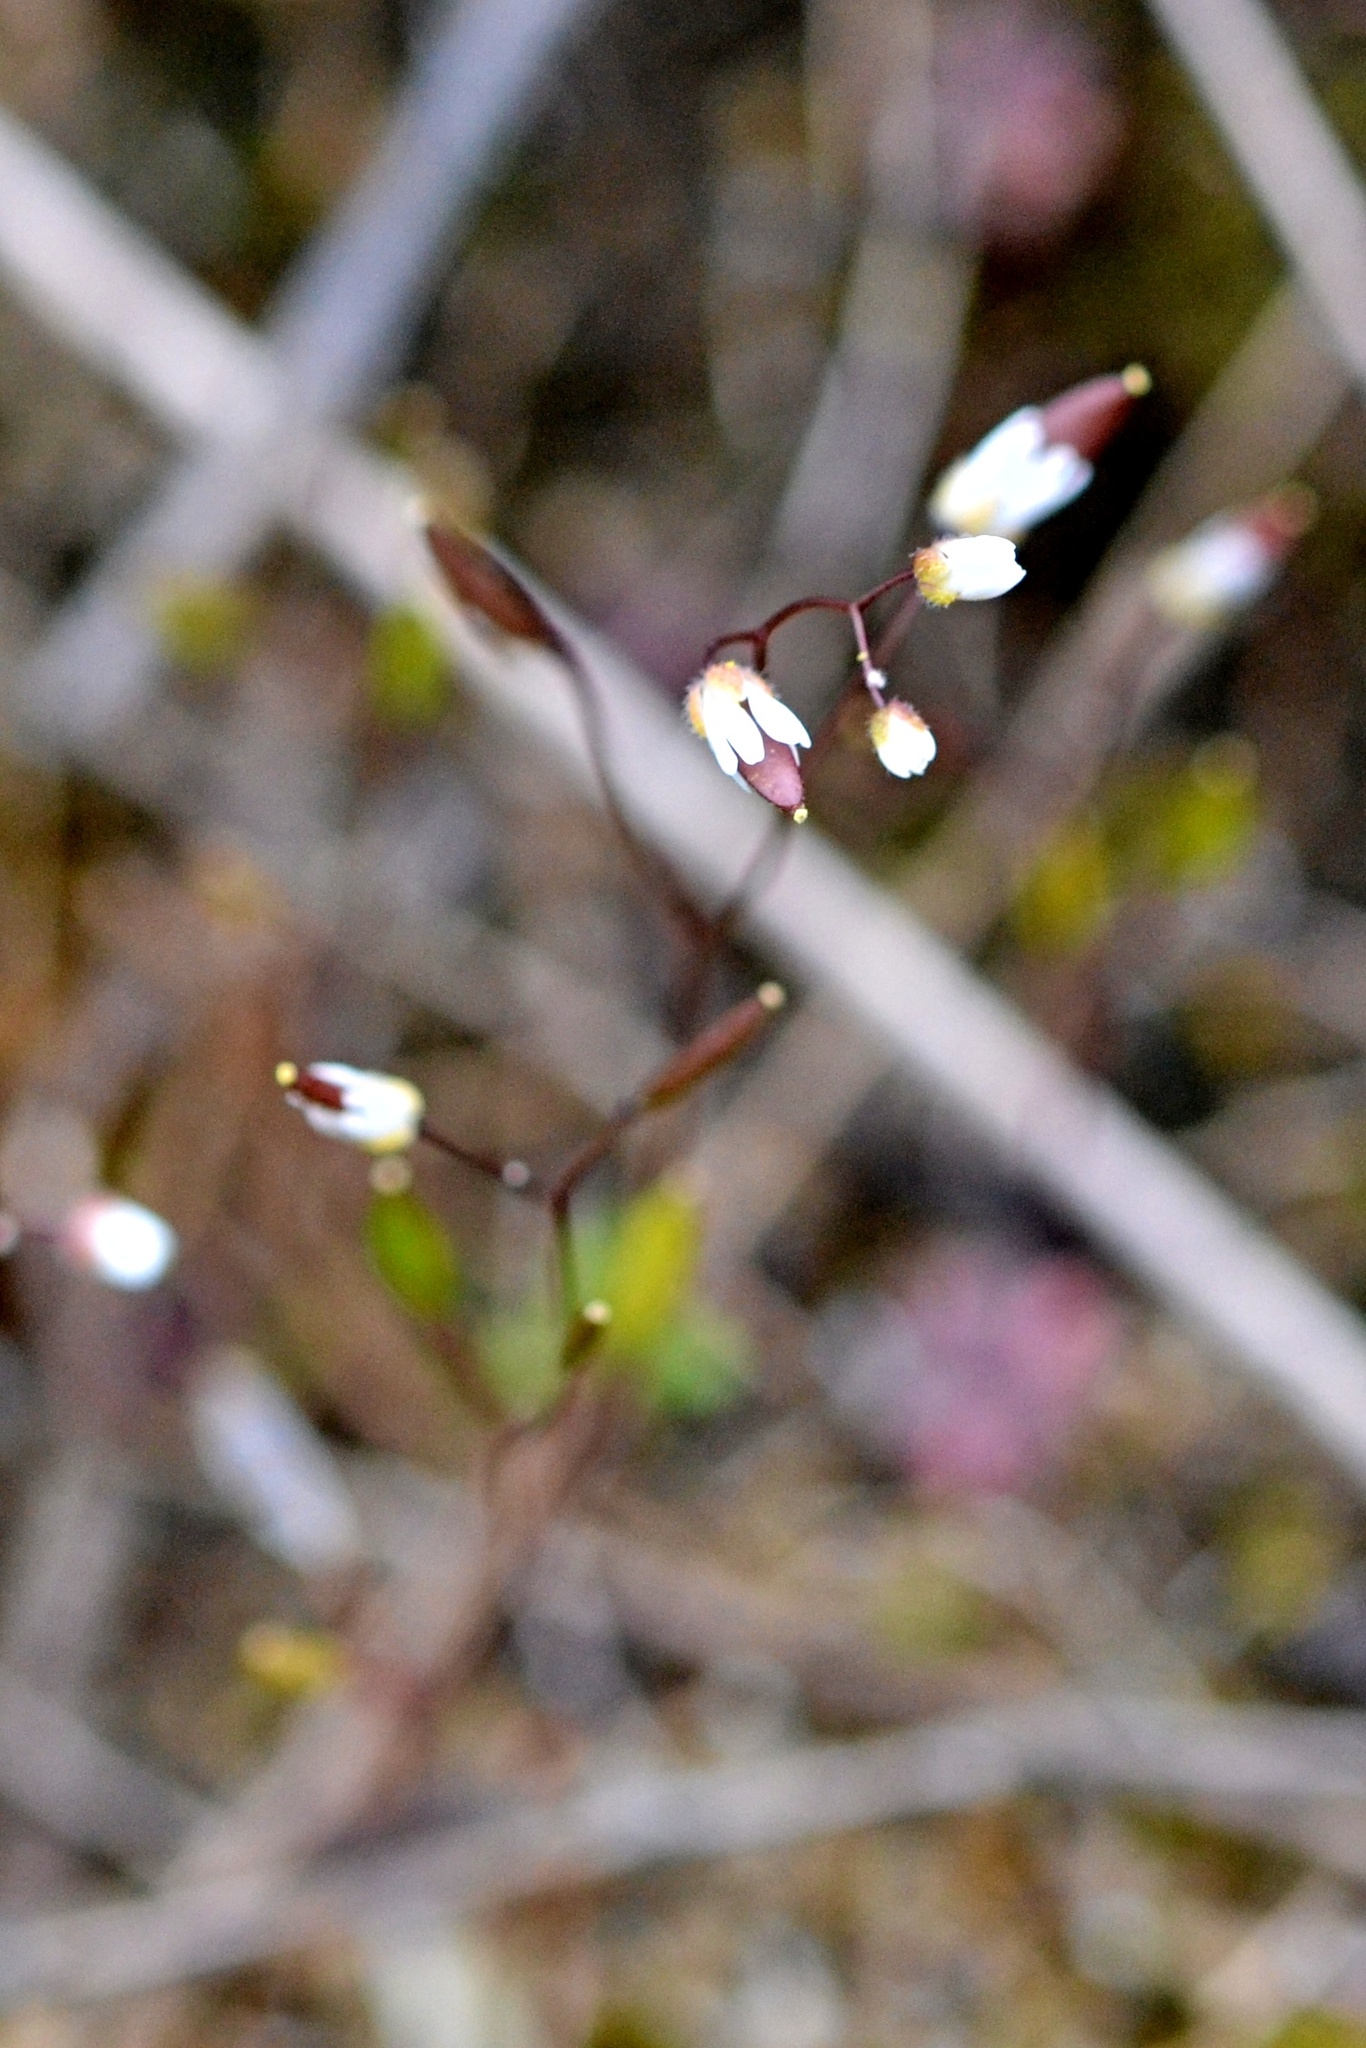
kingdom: Plantae
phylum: Tracheophyta
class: Magnoliopsida
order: Brassicales
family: Brassicaceae
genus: Draba
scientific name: Draba verna
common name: Spring draba
